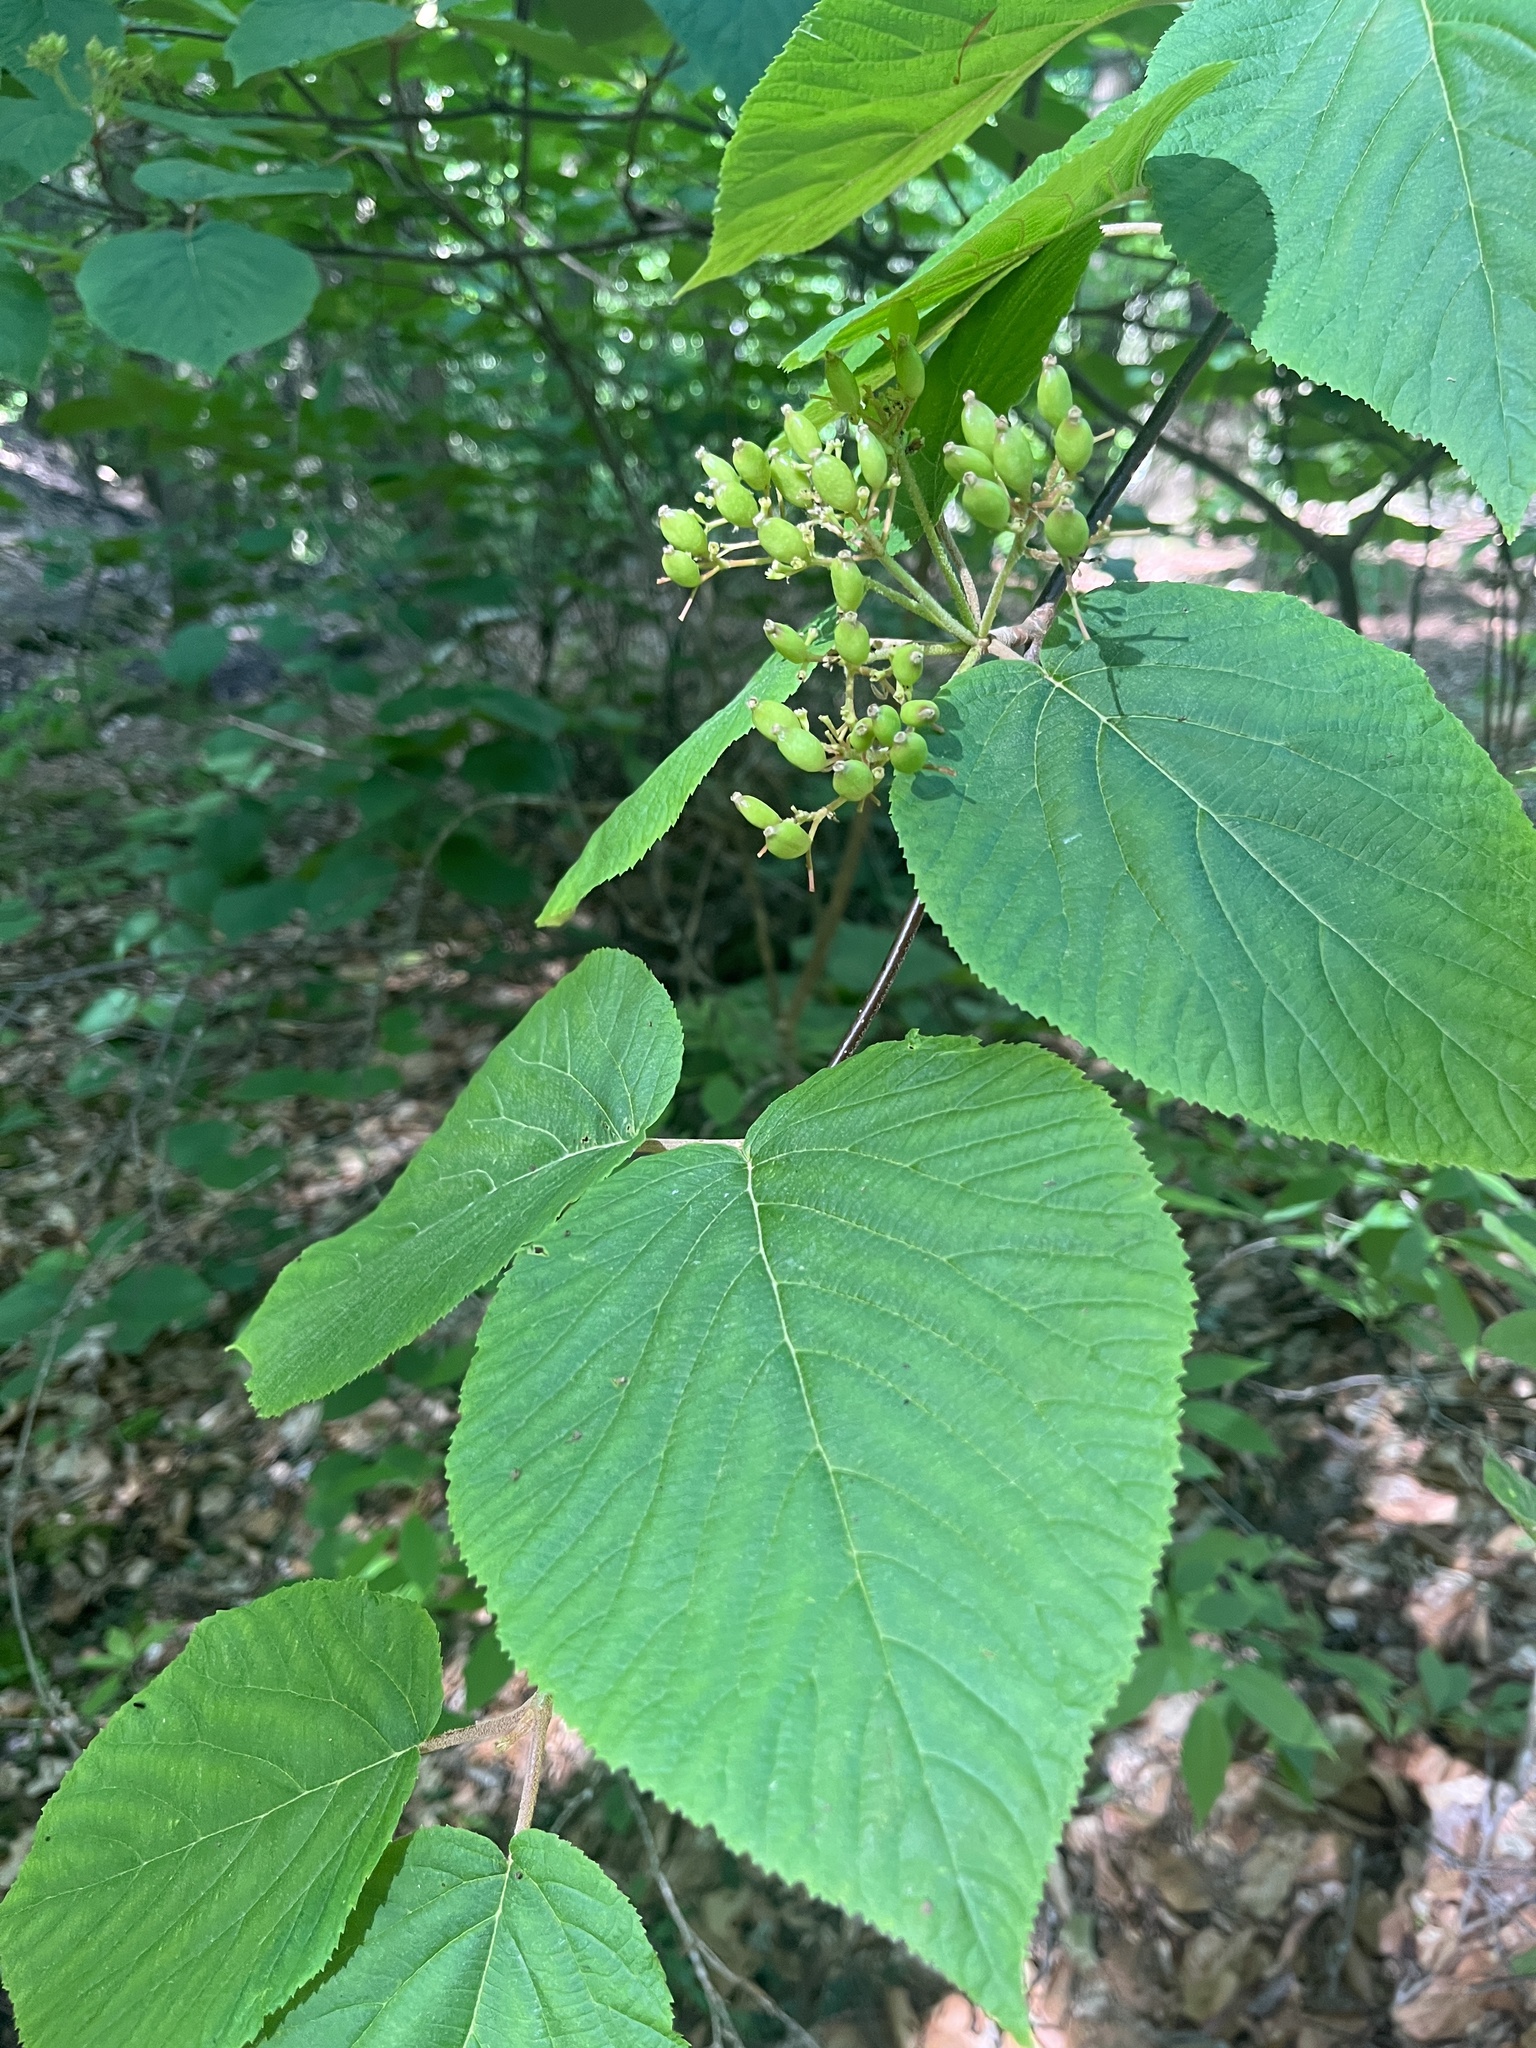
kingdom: Plantae
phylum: Tracheophyta
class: Magnoliopsida
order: Dipsacales
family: Viburnaceae
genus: Viburnum
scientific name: Viburnum lantanoides
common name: Hobblebush
